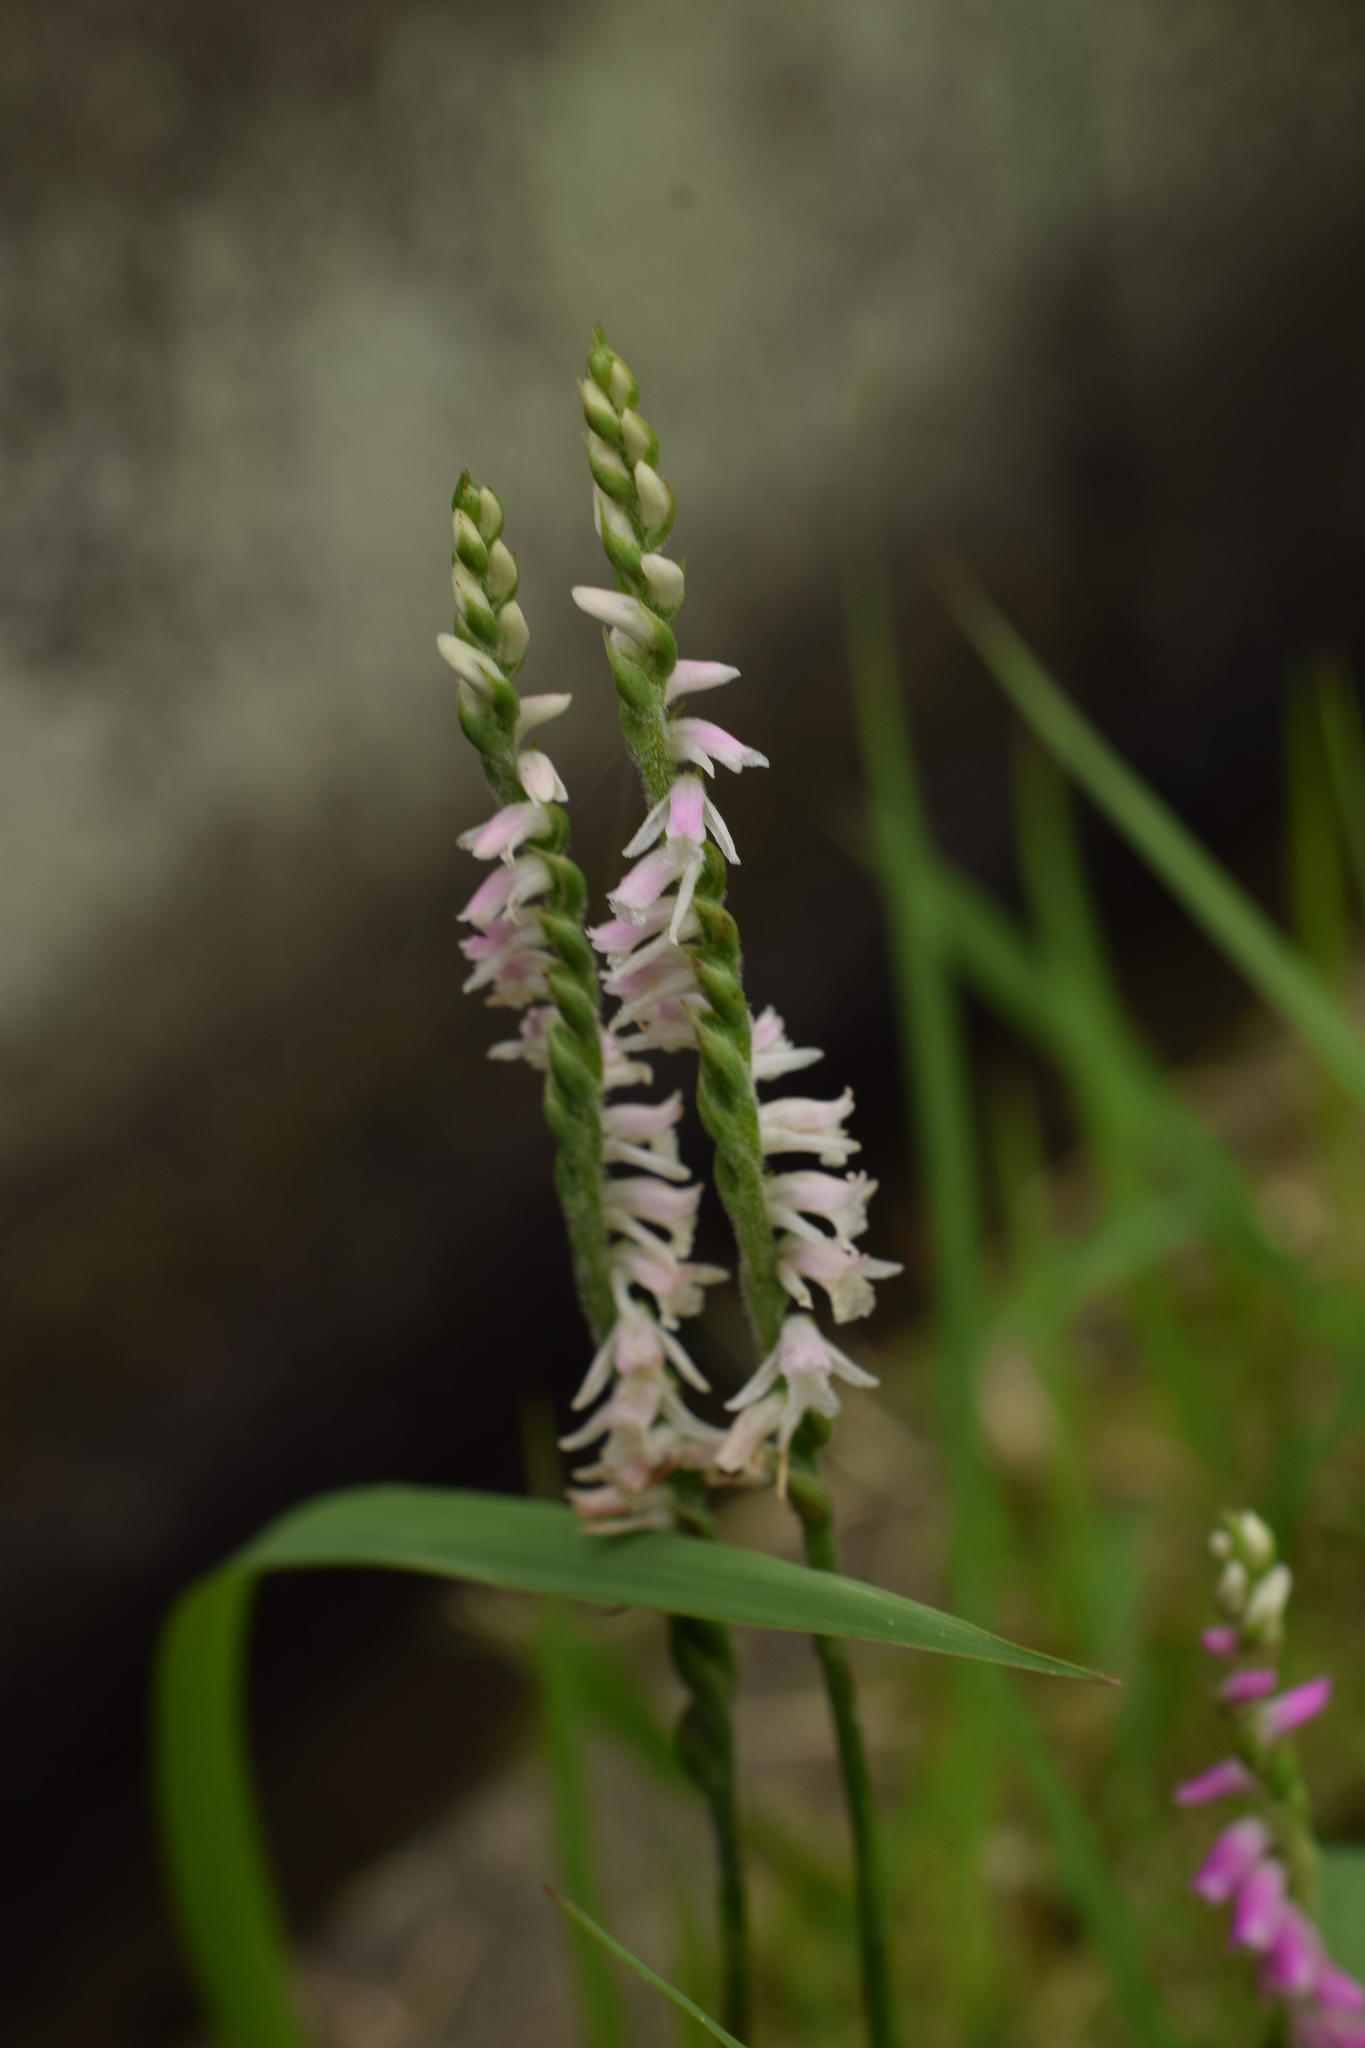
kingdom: Plantae
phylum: Tracheophyta
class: Liliopsida
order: Asparagales
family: Orchidaceae
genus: Spiranthes
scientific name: Spiranthes australis
